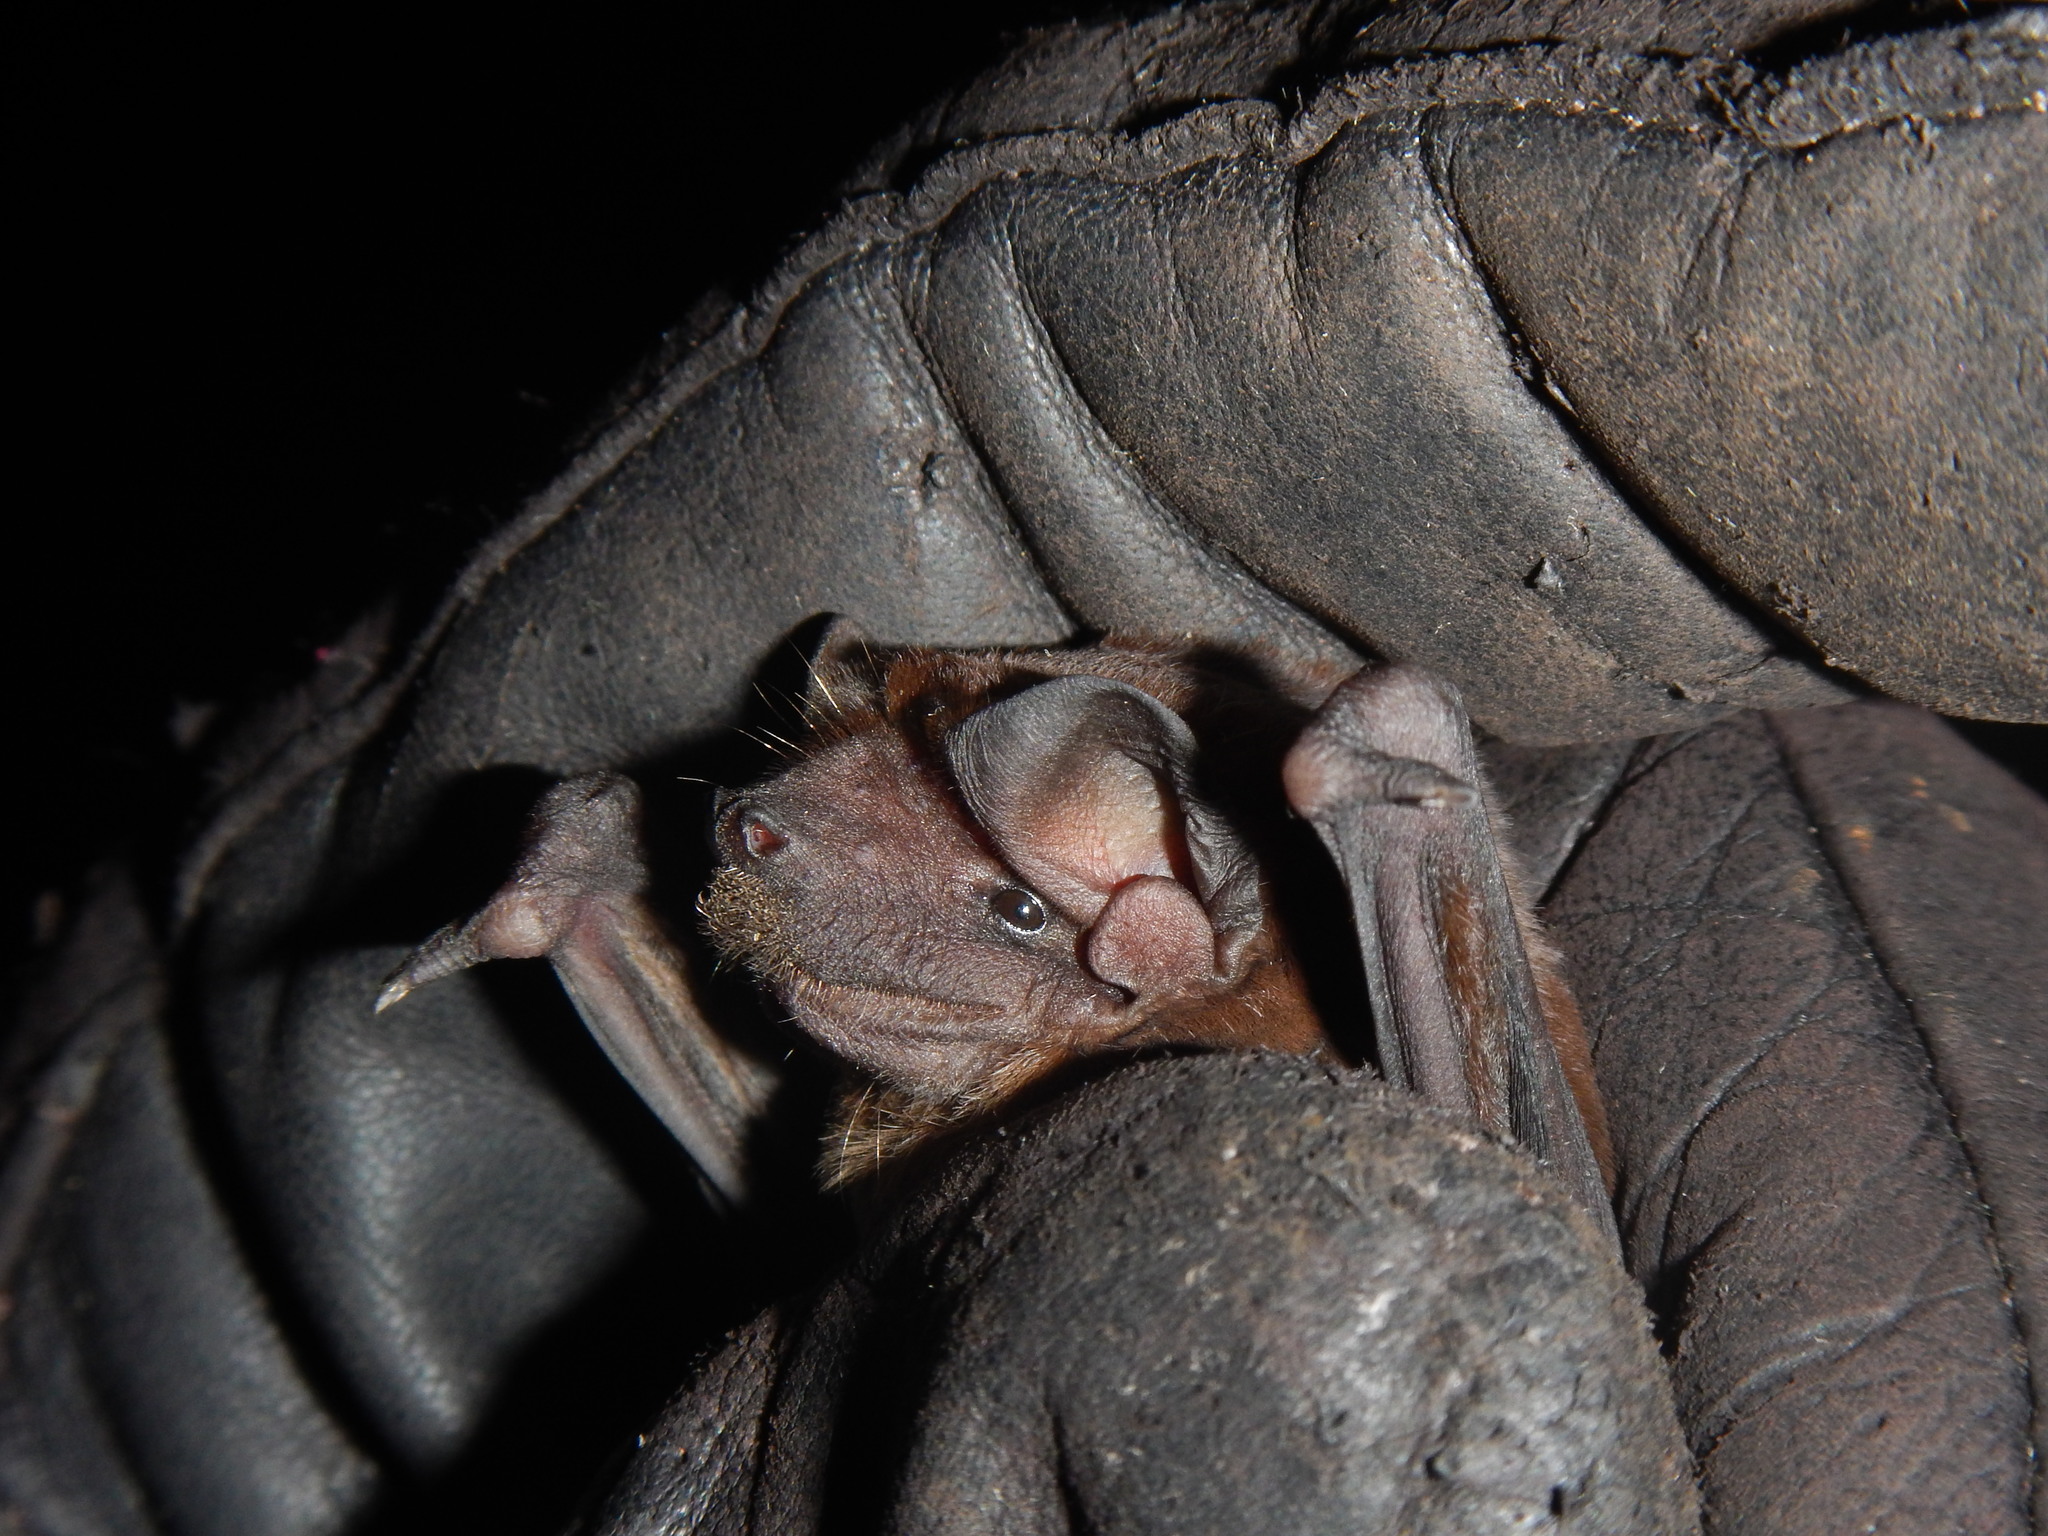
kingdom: Animalia
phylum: Chordata
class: Mammalia
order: Chiroptera
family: Molossidae
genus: Molossus
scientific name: Molossus molossus
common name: Pallas's mastiff bat
